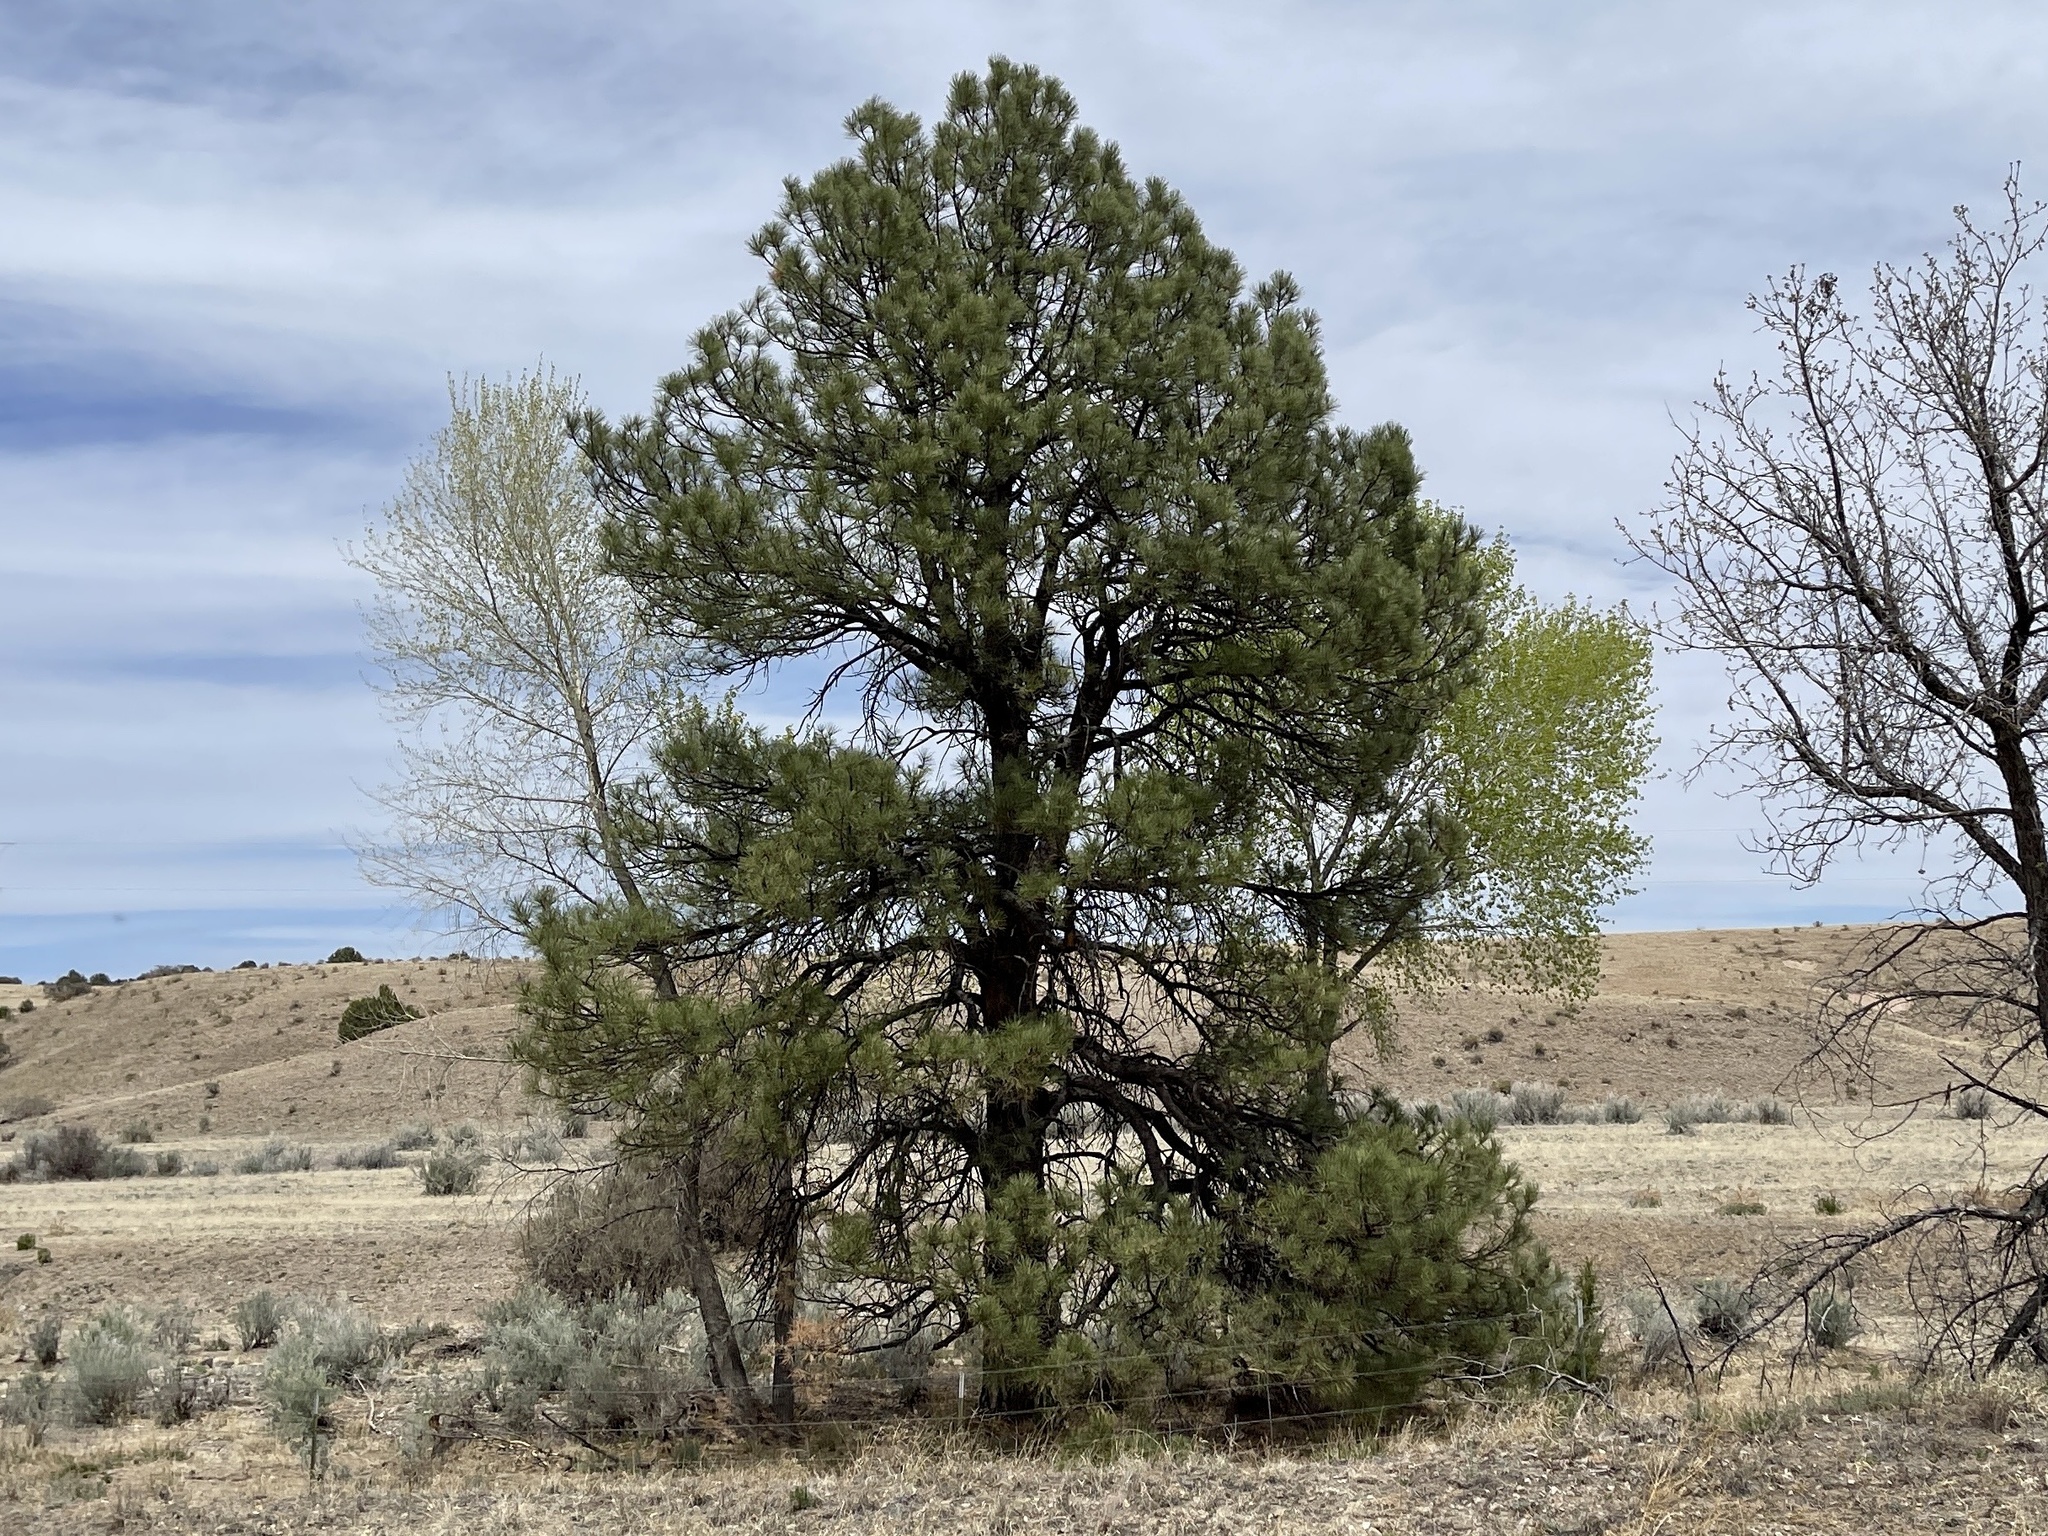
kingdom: Plantae
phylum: Tracheophyta
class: Pinopsida
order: Pinales
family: Pinaceae
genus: Pinus
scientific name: Pinus ponderosa
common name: Western yellow-pine
